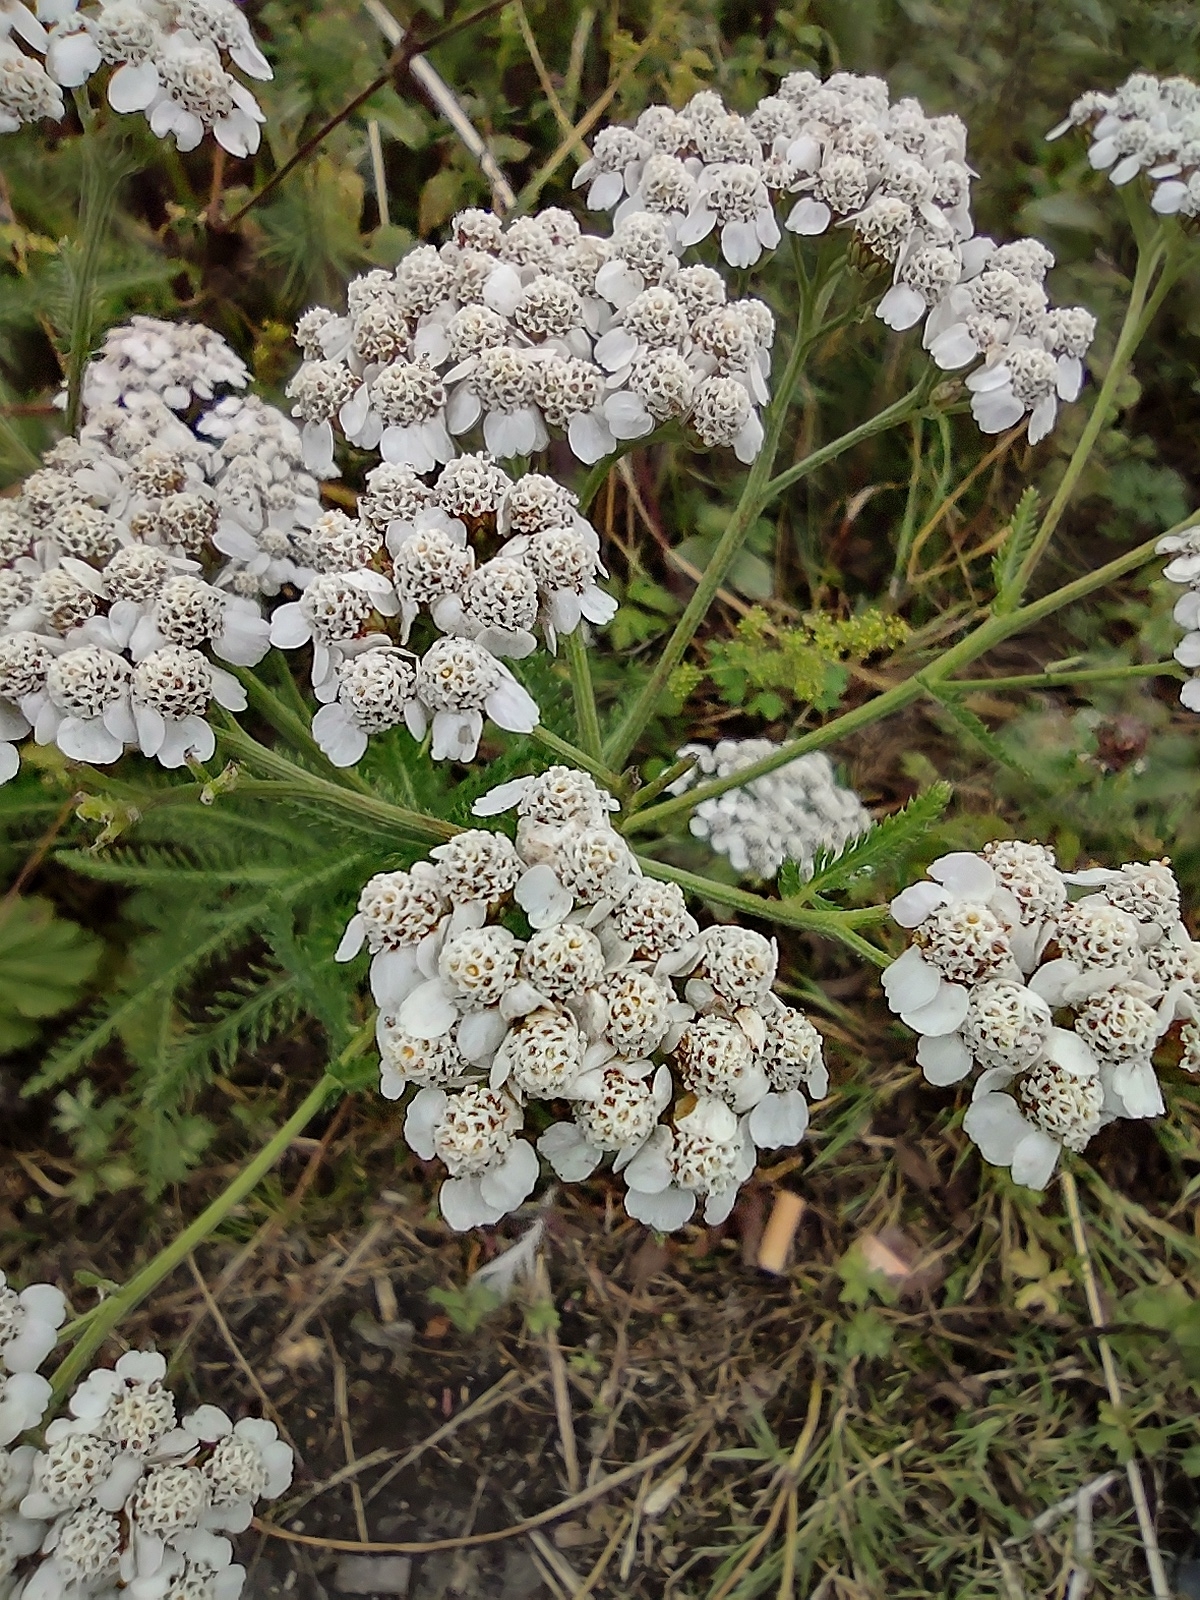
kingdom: Plantae
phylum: Tracheophyta
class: Magnoliopsida
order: Asterales
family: Asteraceae
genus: Achillea
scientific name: Achillea millefolium
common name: Yarrow
